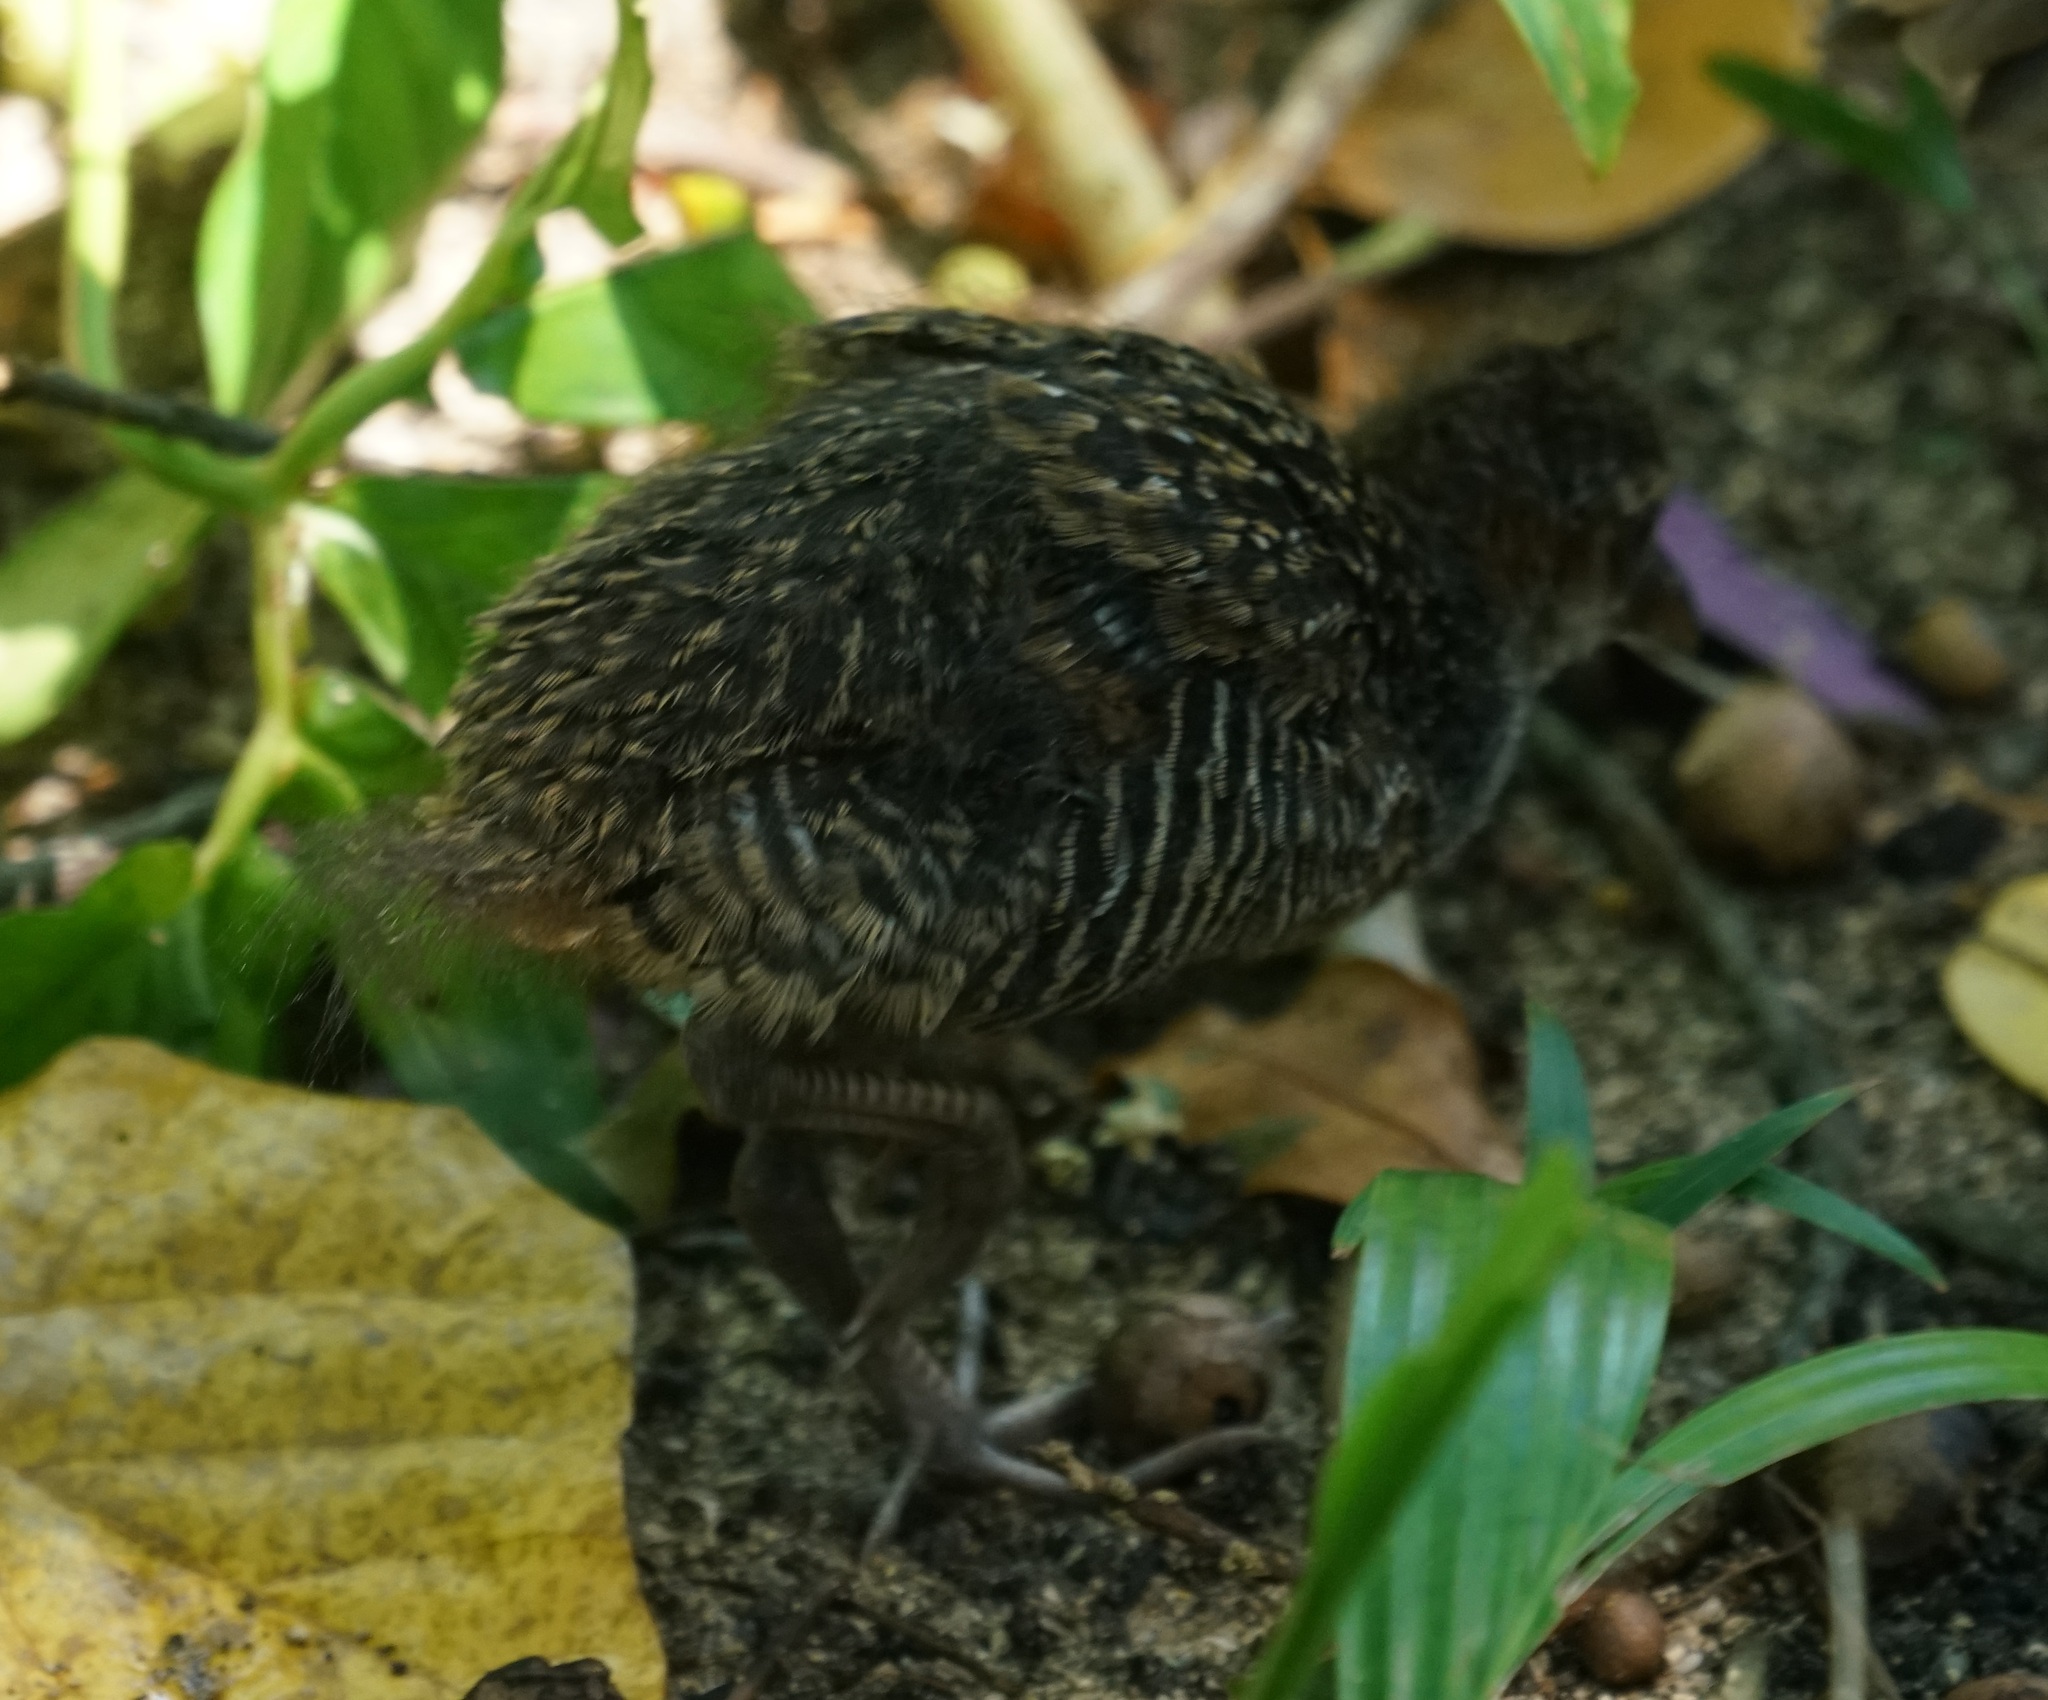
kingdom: Animalia
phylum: Chordata
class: Aves
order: Gruiformes
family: Rallidae
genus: Gallirallus
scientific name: Gallirallus philippensis
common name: Buff-banded rail
